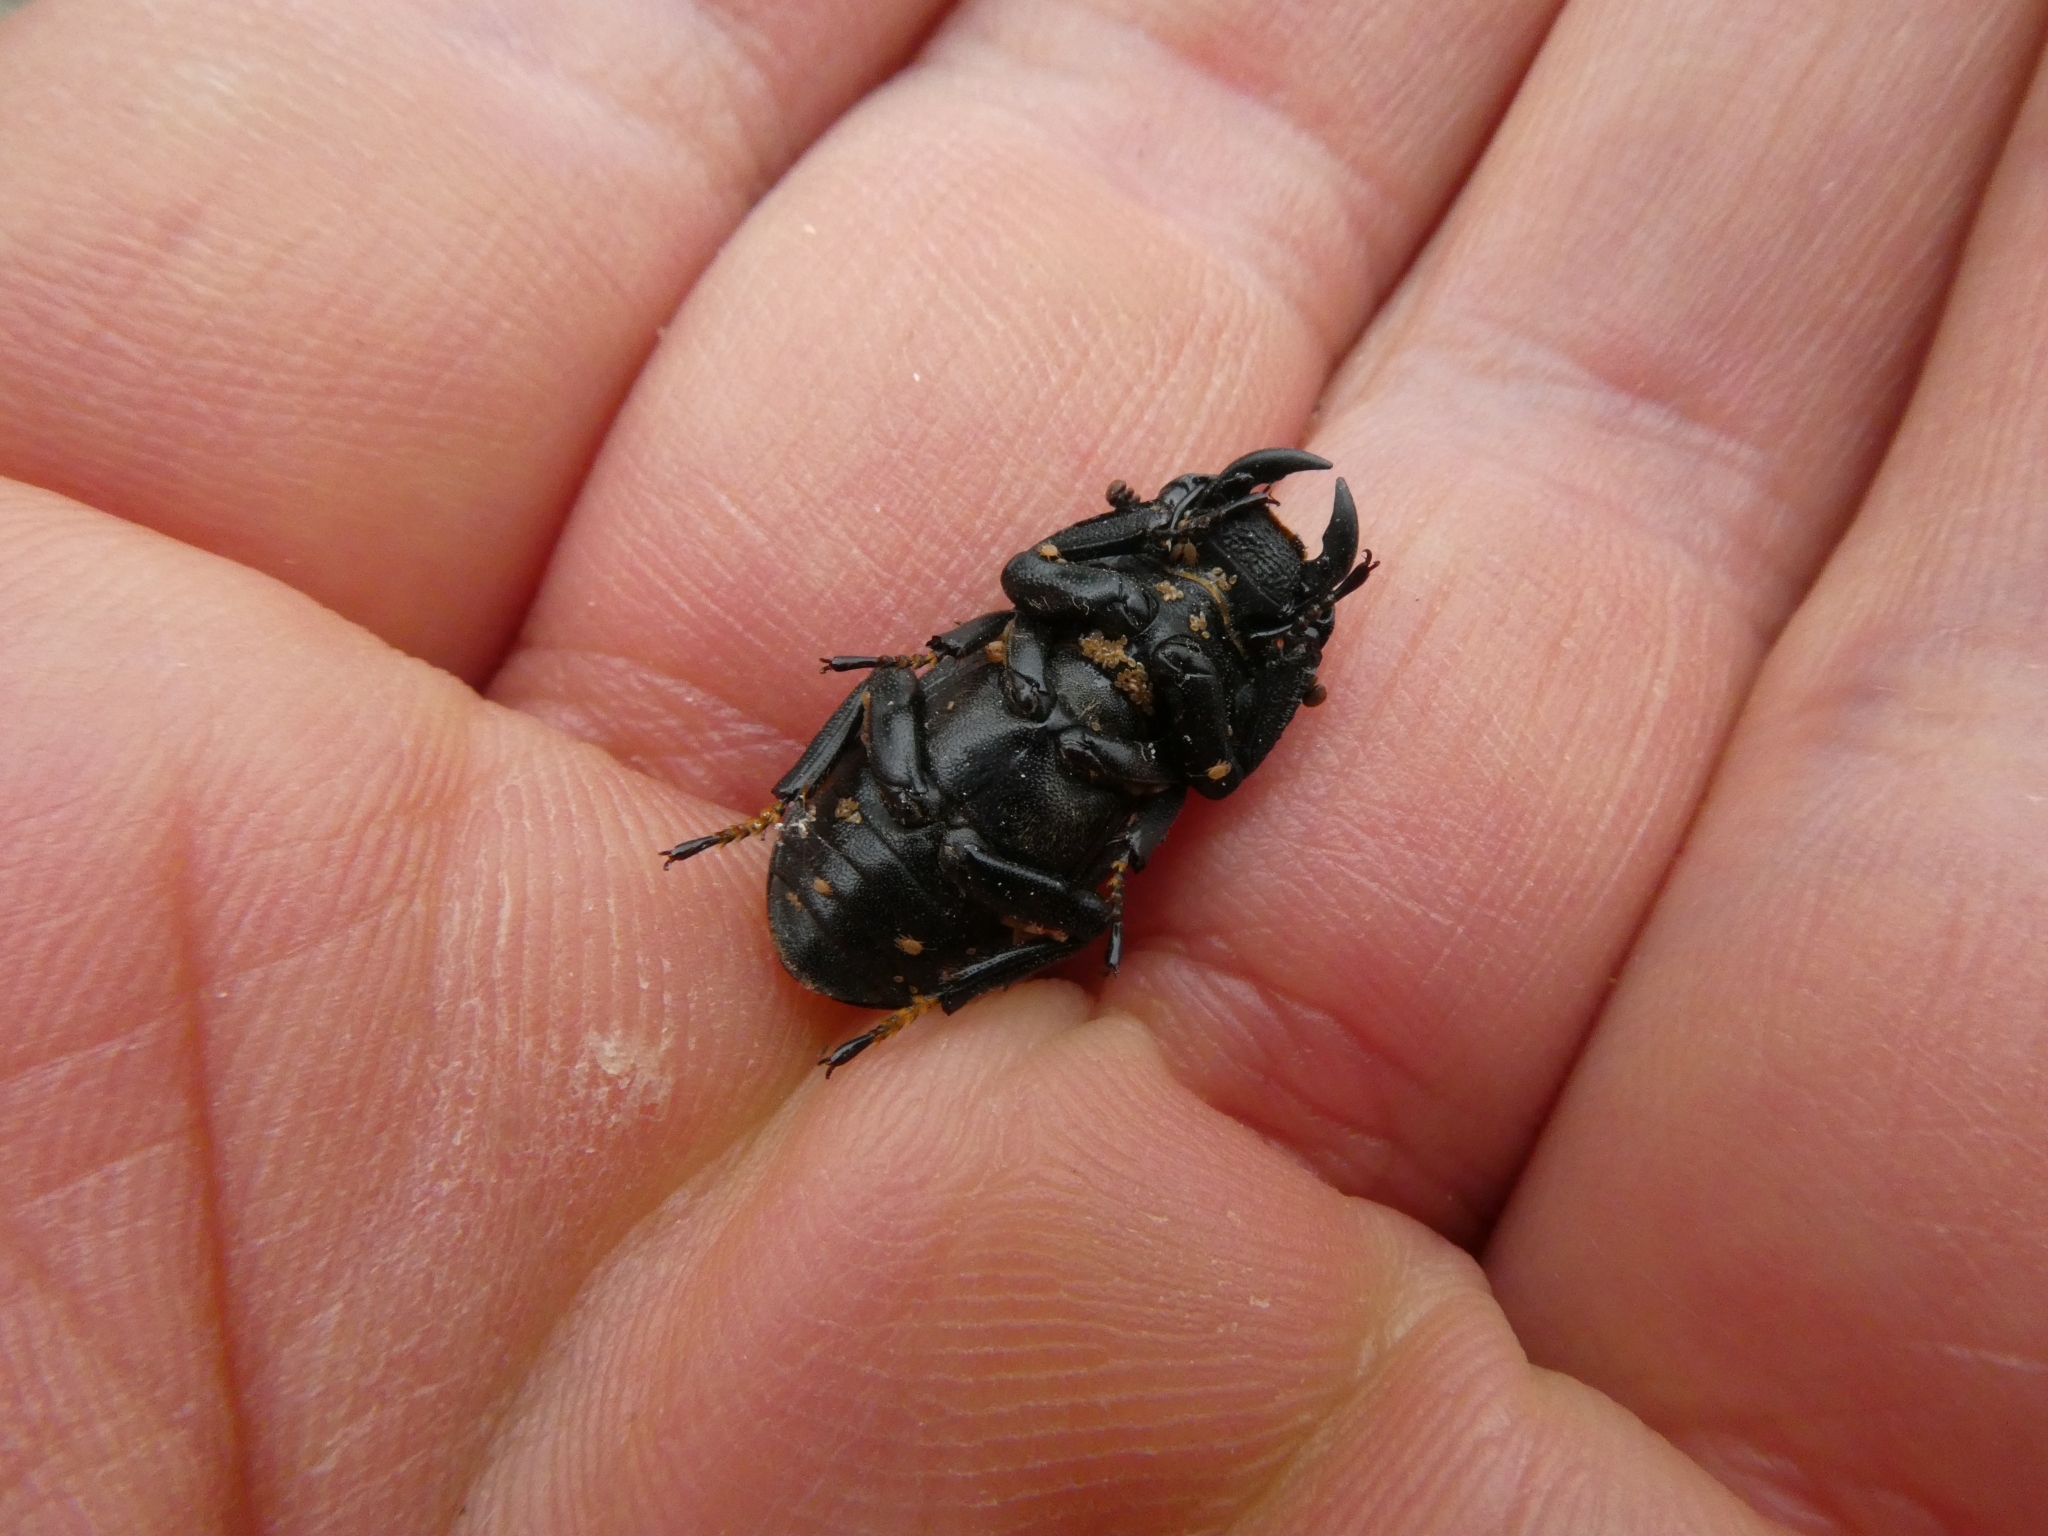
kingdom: Animalia
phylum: Arthropoda
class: Insecta
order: Coleoptera
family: Lucanidae
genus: Dorcus
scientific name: Dorcus parallelipipedus
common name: Lesser stag beetle
